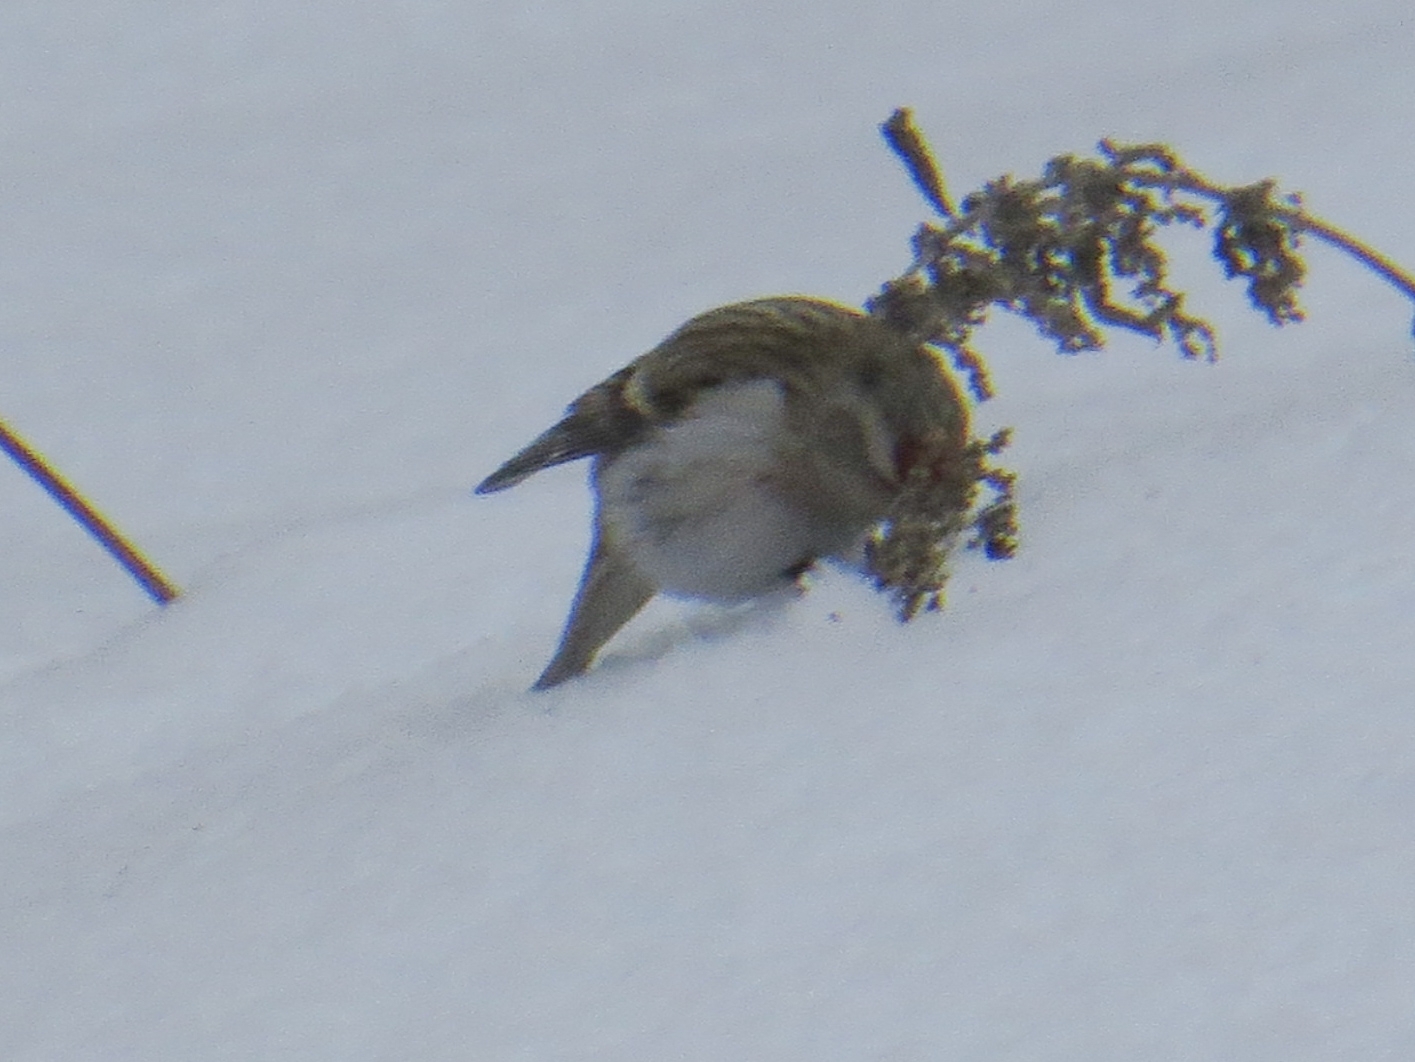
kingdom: Animalia
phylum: Chordata
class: Aves
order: Passeriformes
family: Fringillidae
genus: Acanthis
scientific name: Acanthis hornemanni
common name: Arctic redpoll
